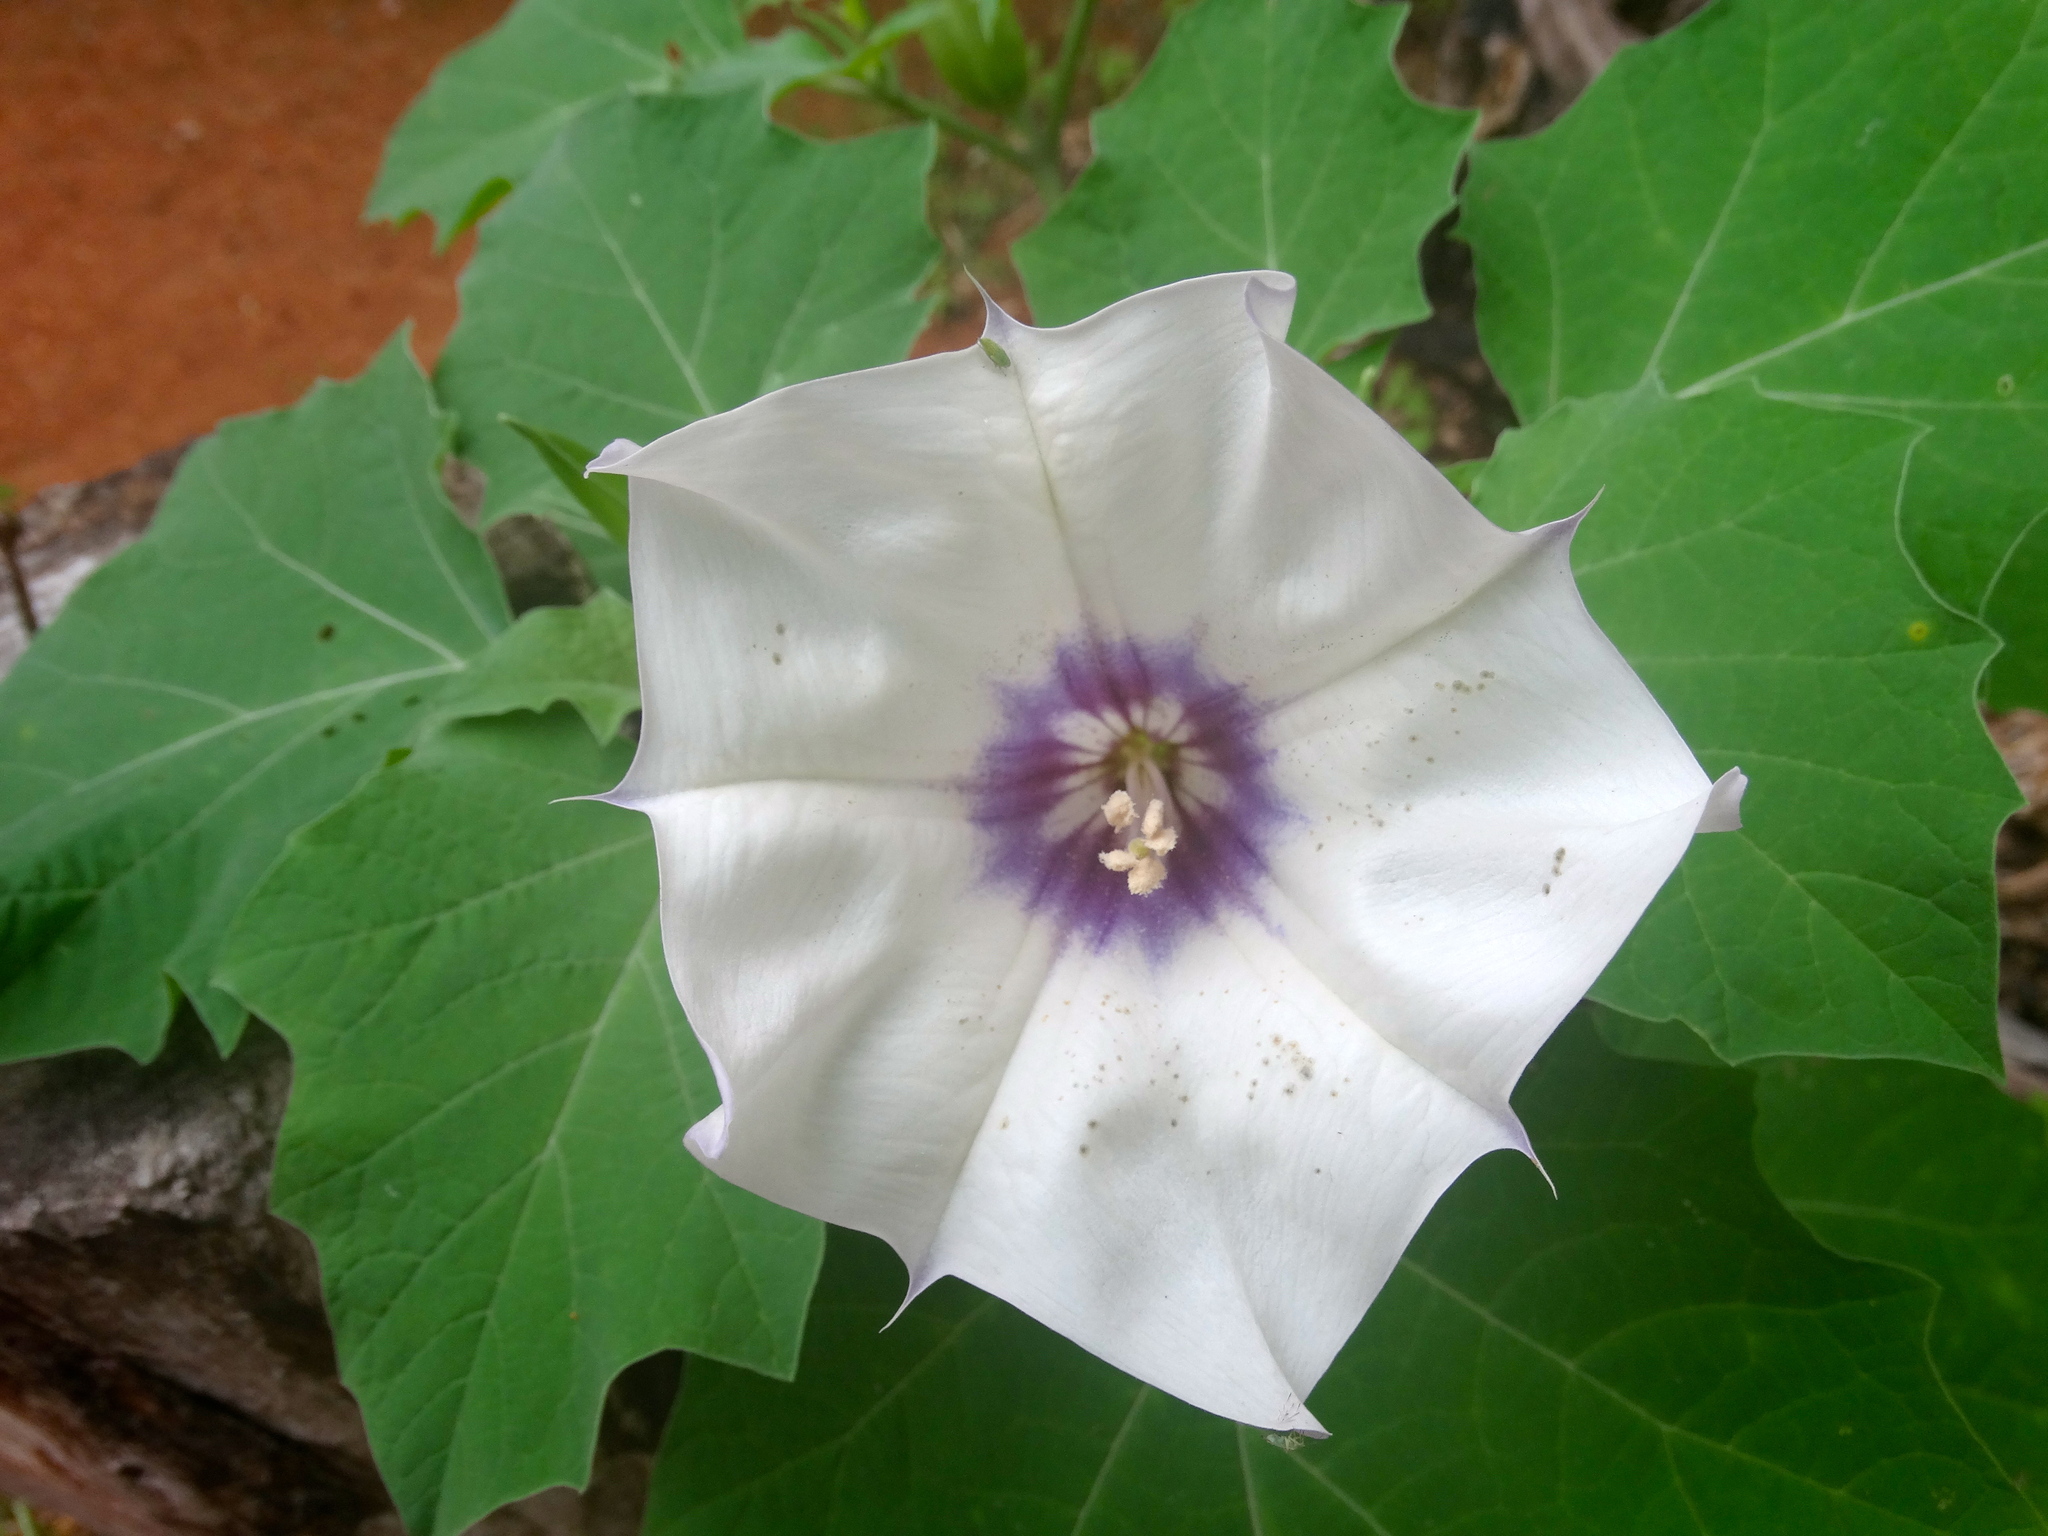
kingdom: Plantae
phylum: Tracheophyta
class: Magnoliopsida
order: Solanales
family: Solanaceae
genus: Datura
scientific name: Datura discolor
